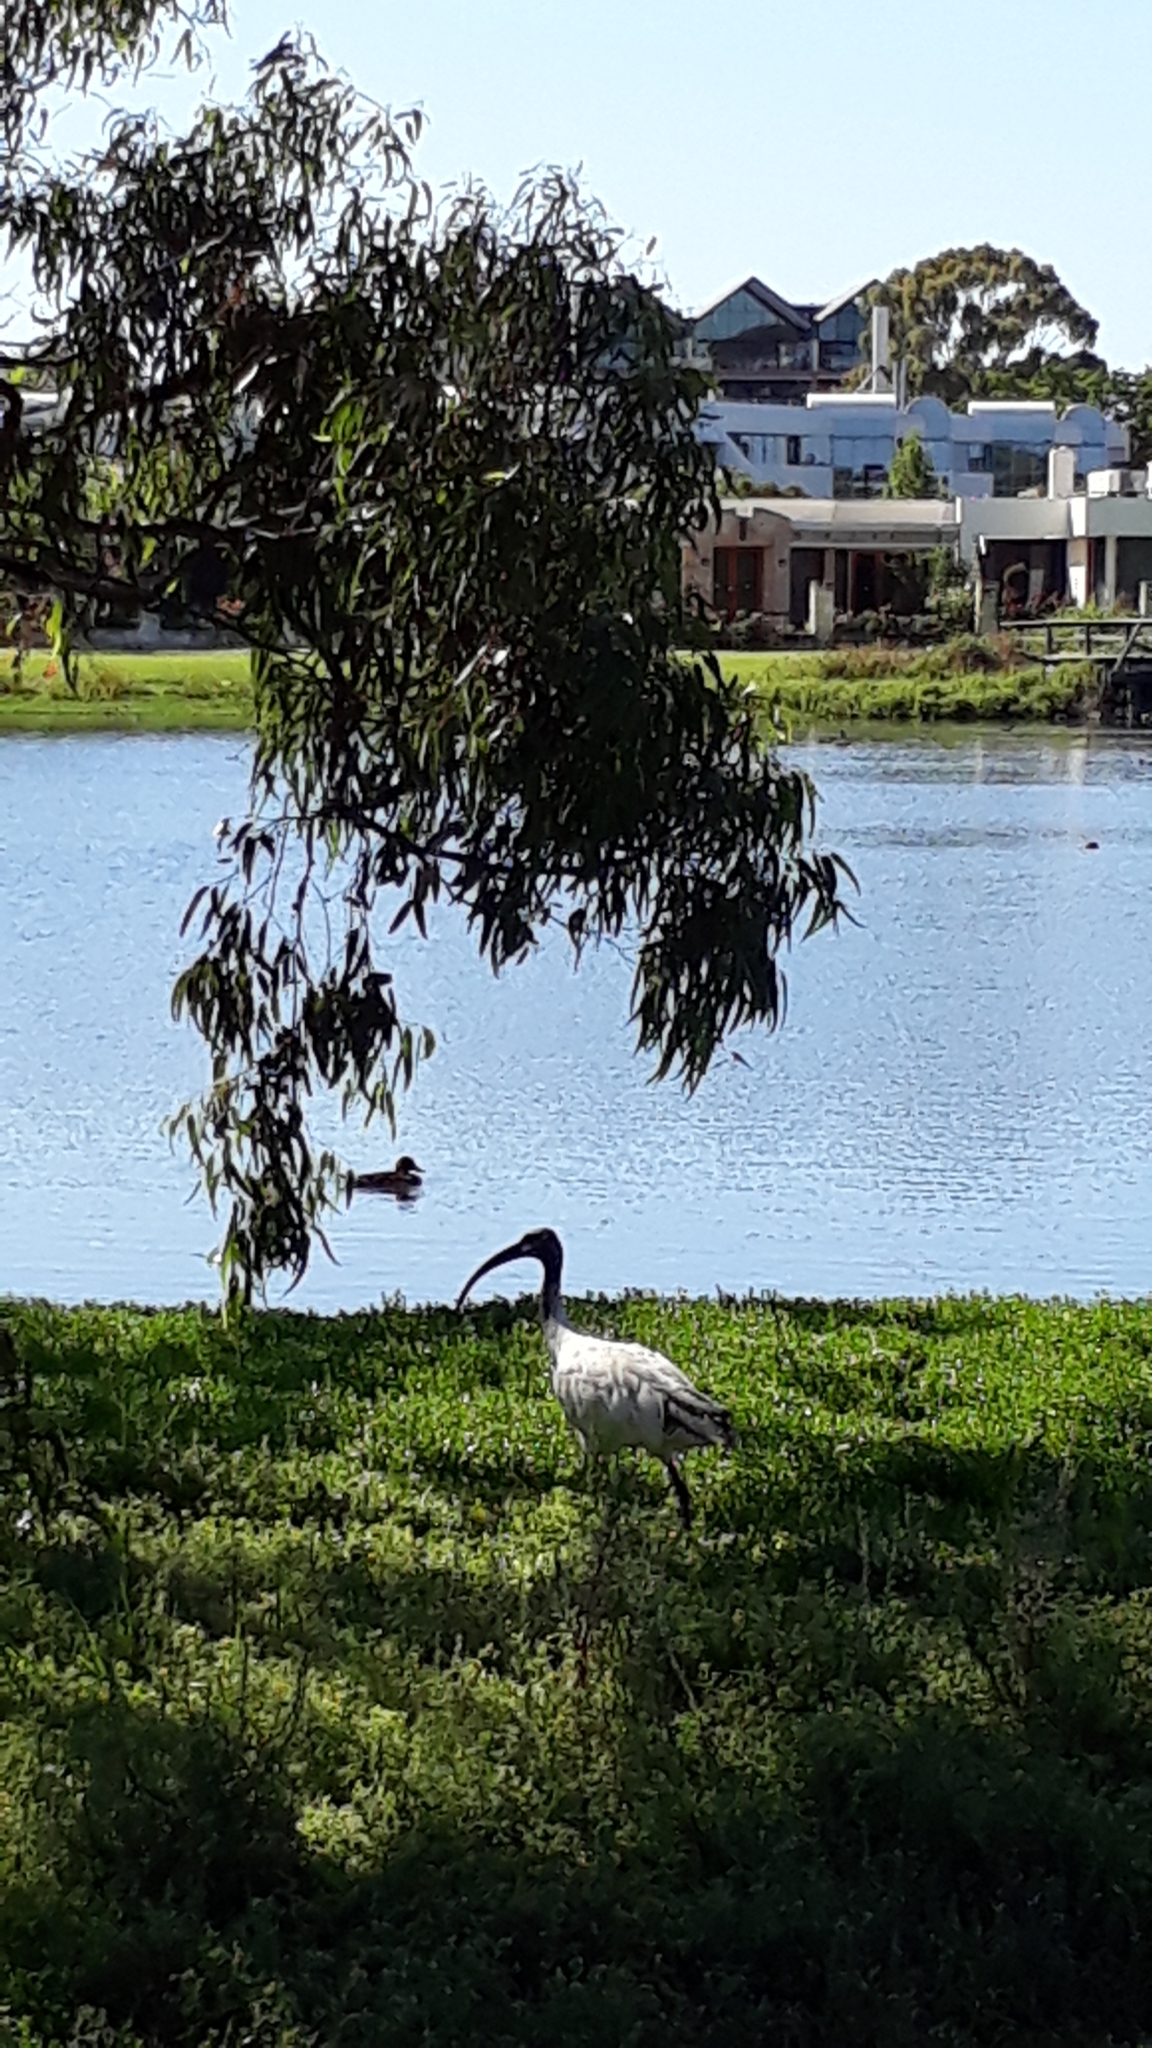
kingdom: Animalia
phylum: Chordata
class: Aves
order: Pelecaniformes
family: Threskiornithidae
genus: Threskiornis
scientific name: Threskiornis molucca
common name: Australian white ibis
